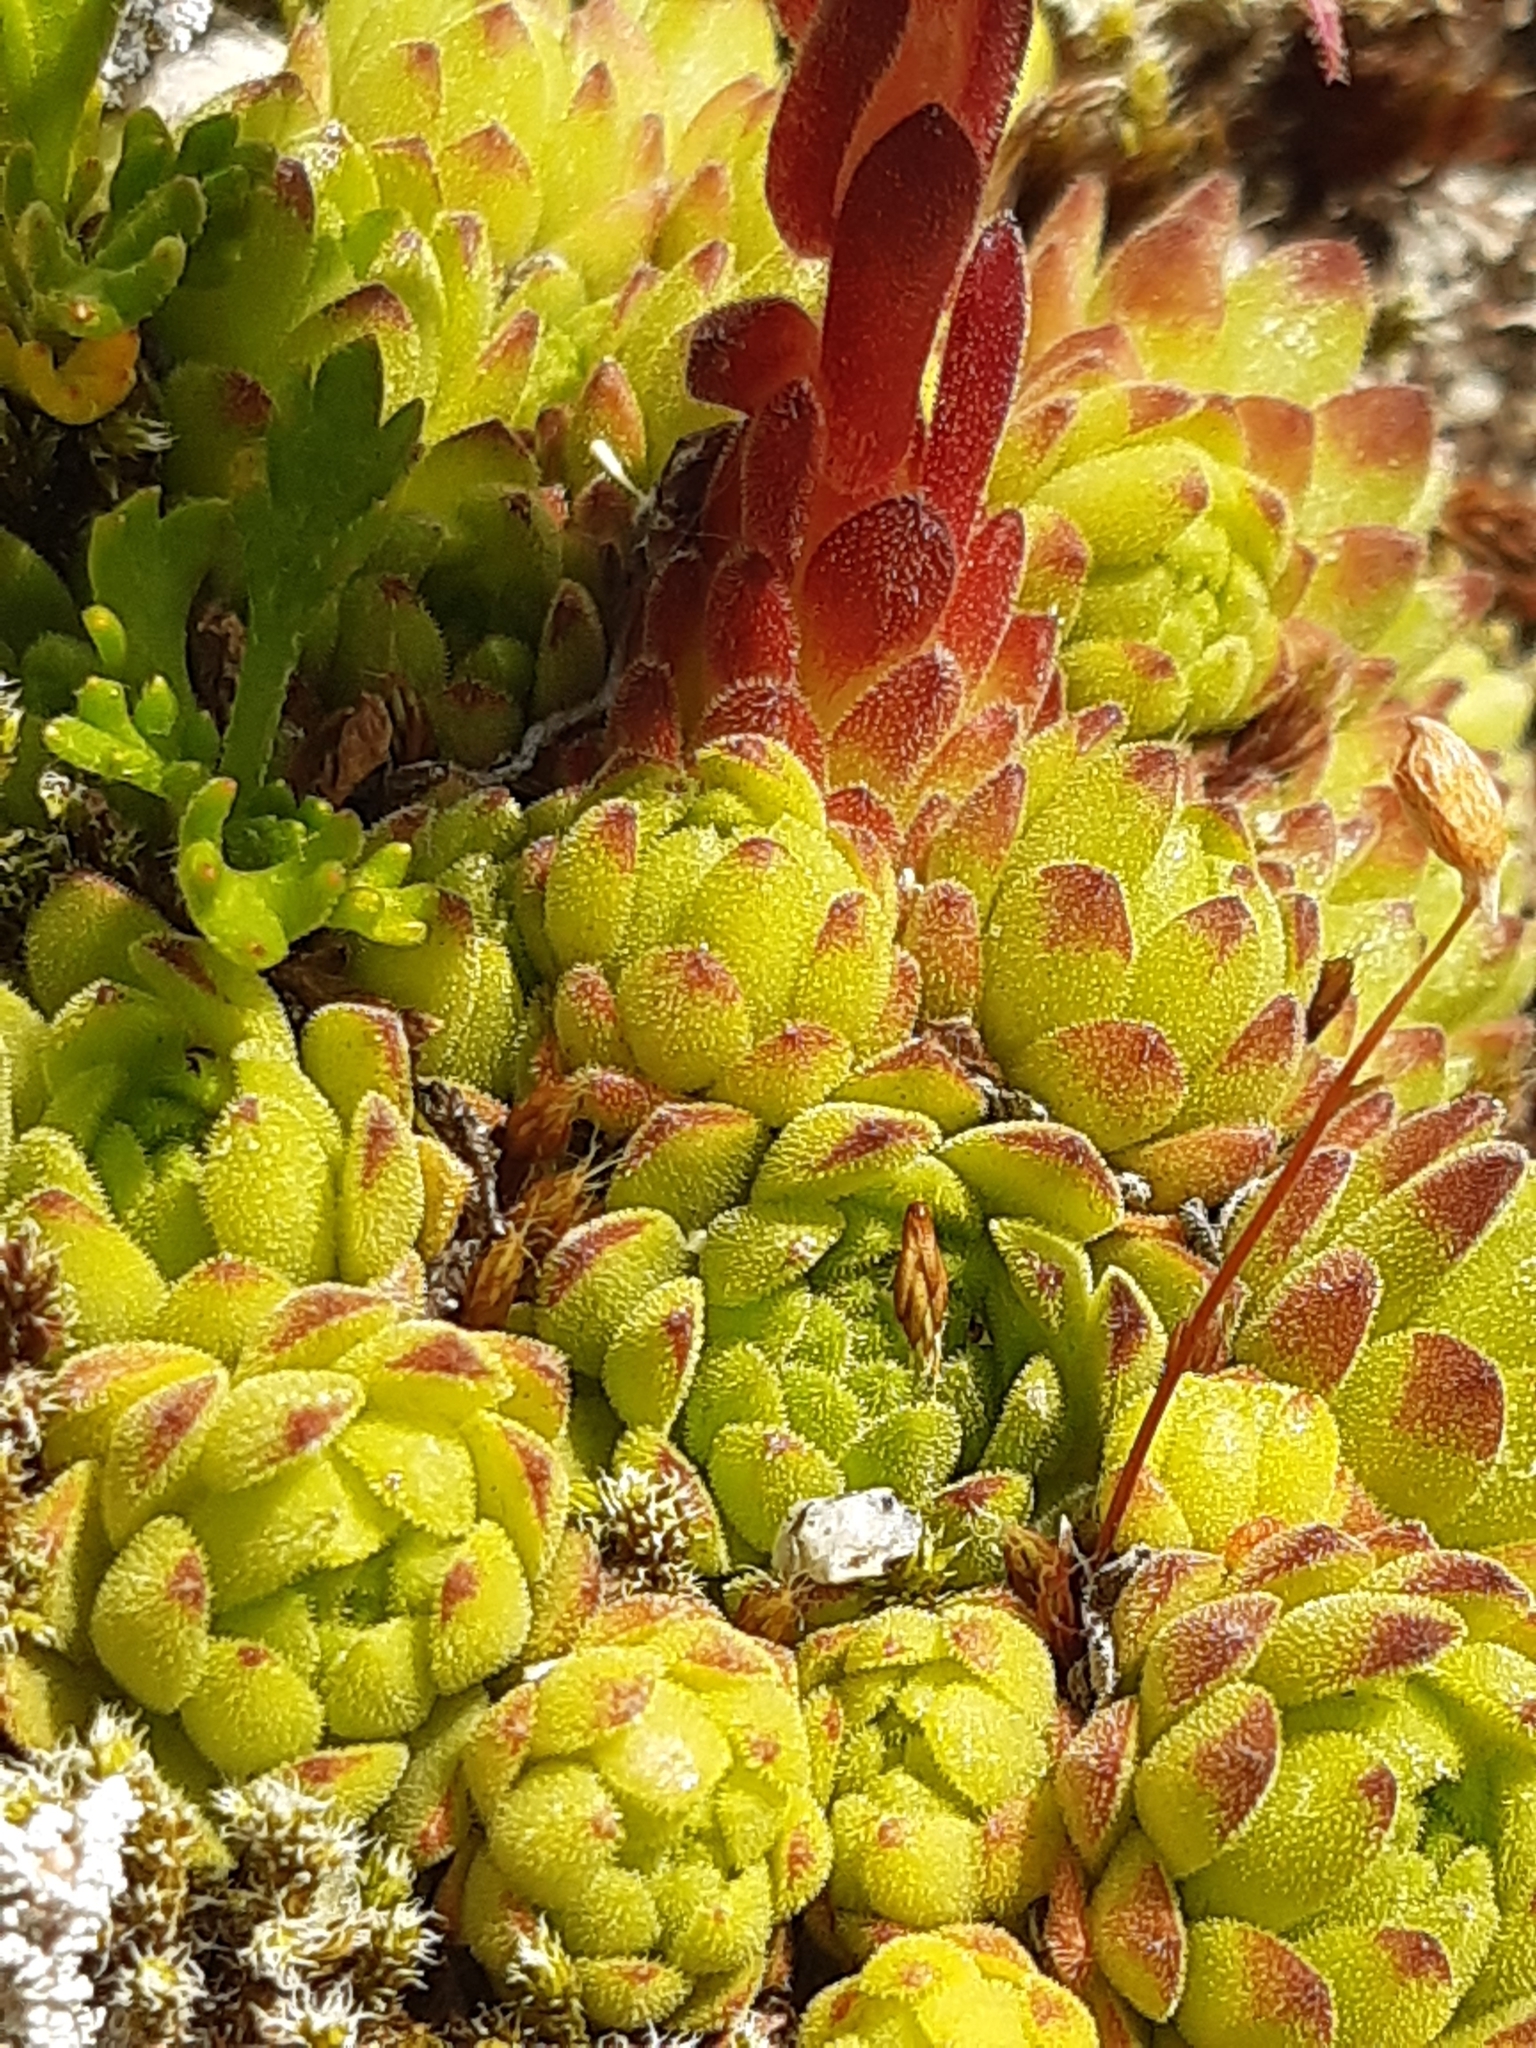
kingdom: Plantae
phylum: Tracheophyta
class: Magnoliopsida
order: Saxifragales
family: Crassulaceae
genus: Sempervivum
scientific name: Sempervivum montanum
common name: Mountain house-leek
